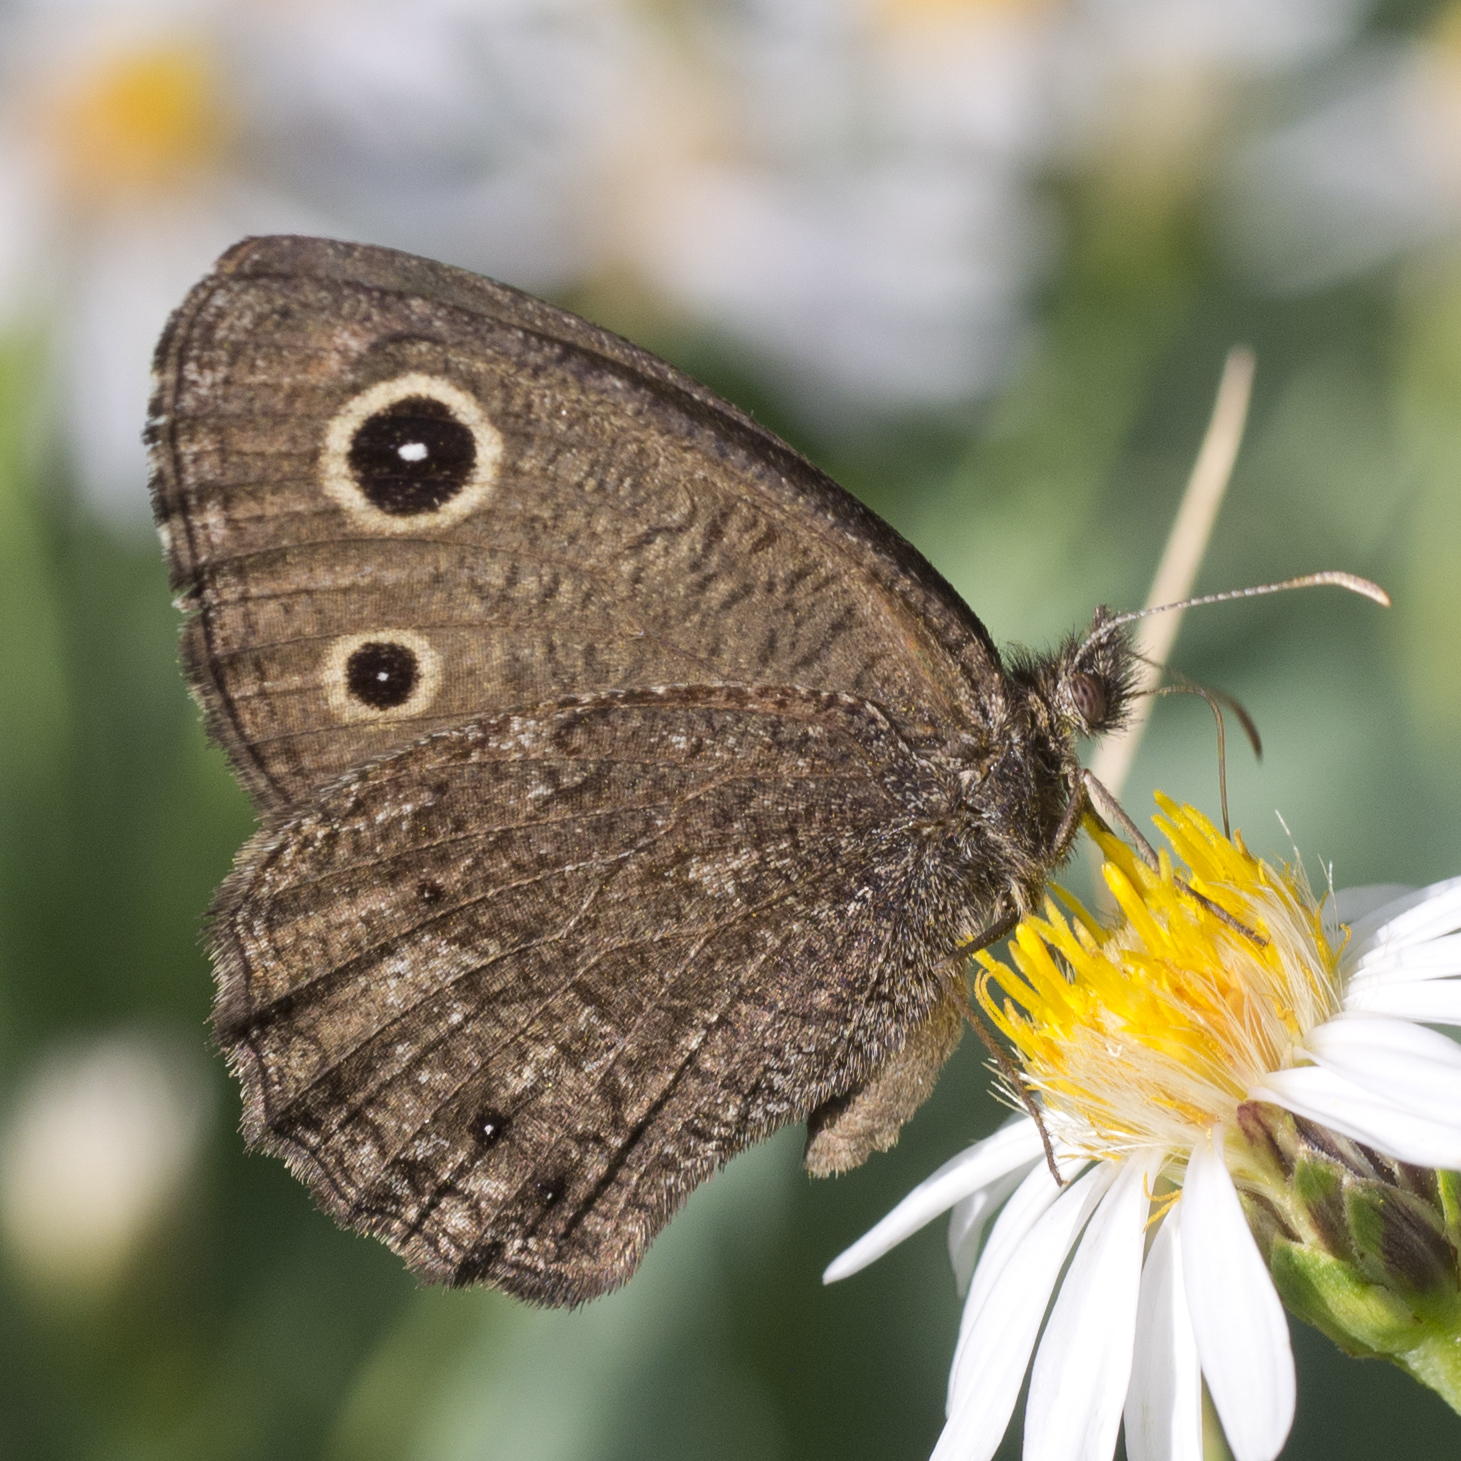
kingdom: Animalia
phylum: Arthropoda
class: Insecta
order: Lepidoptera
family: Nymphalidae
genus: Cercyonis
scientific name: Cercyonis oetus
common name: Small wood-nymph
